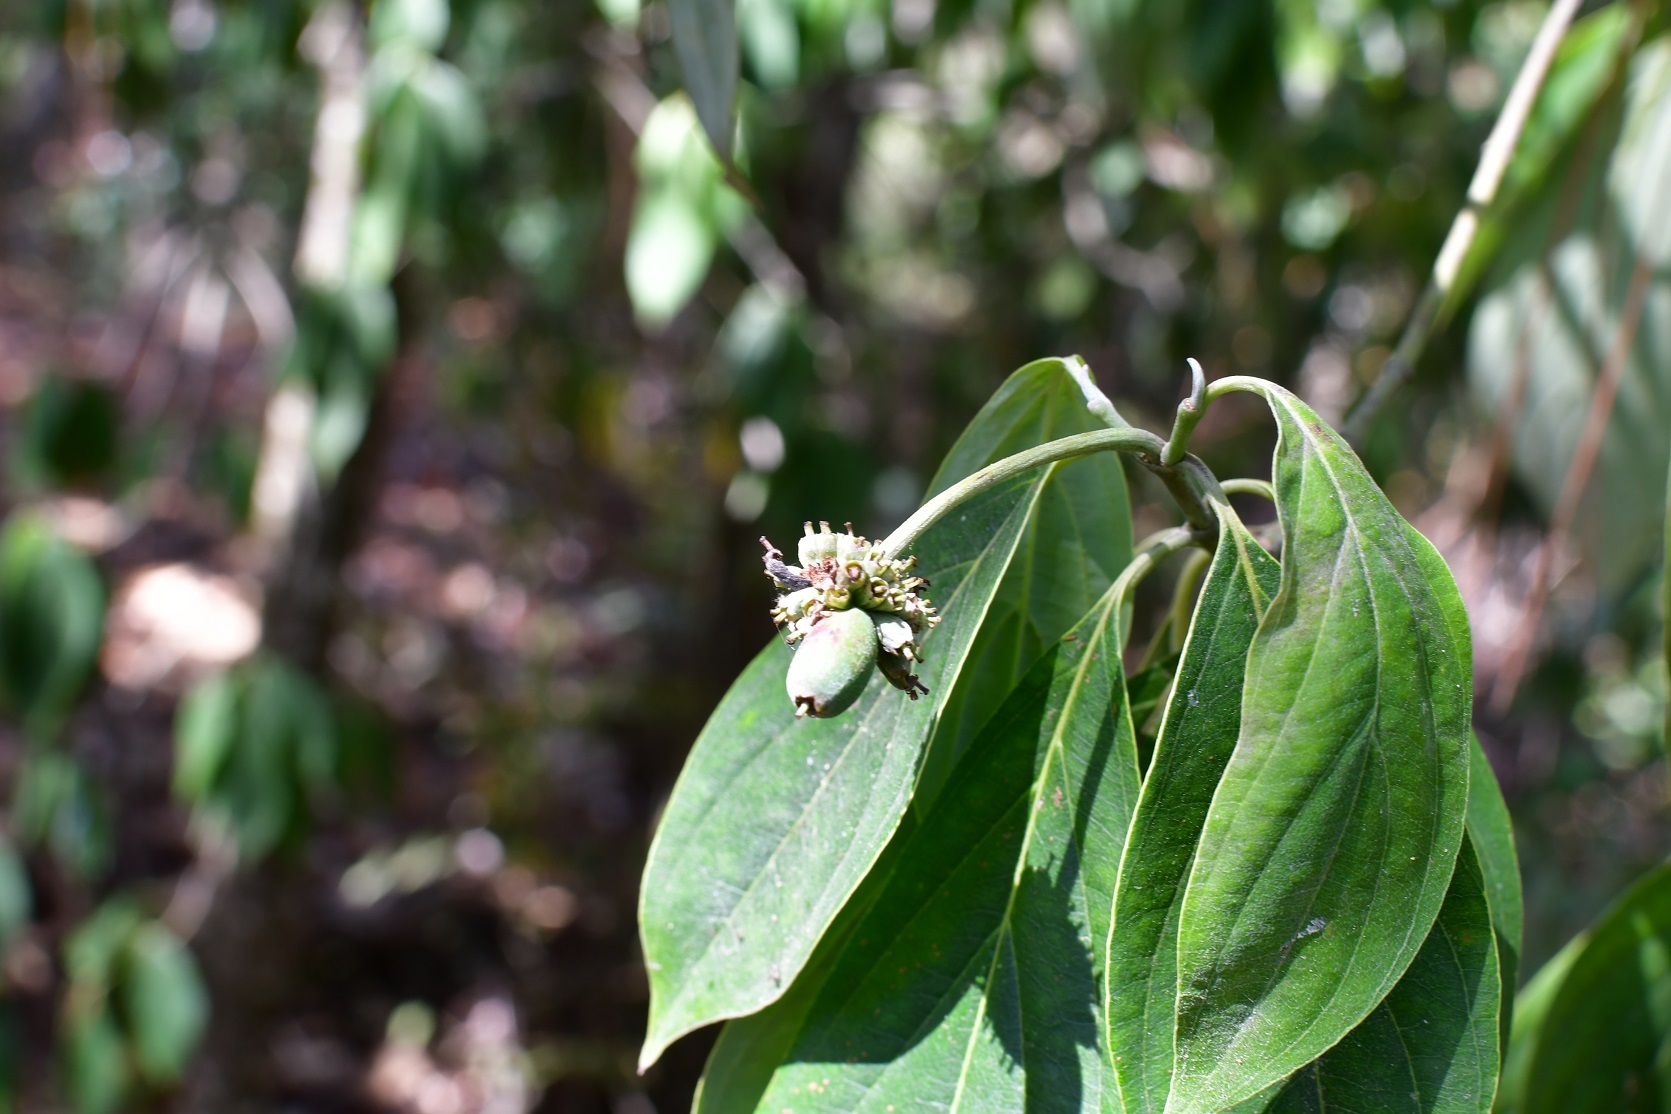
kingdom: Plantae
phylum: Tracheophyta
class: Magnoliopsida
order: Cornales
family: Cornaceae
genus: Cornus
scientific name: Cornus disciflora
